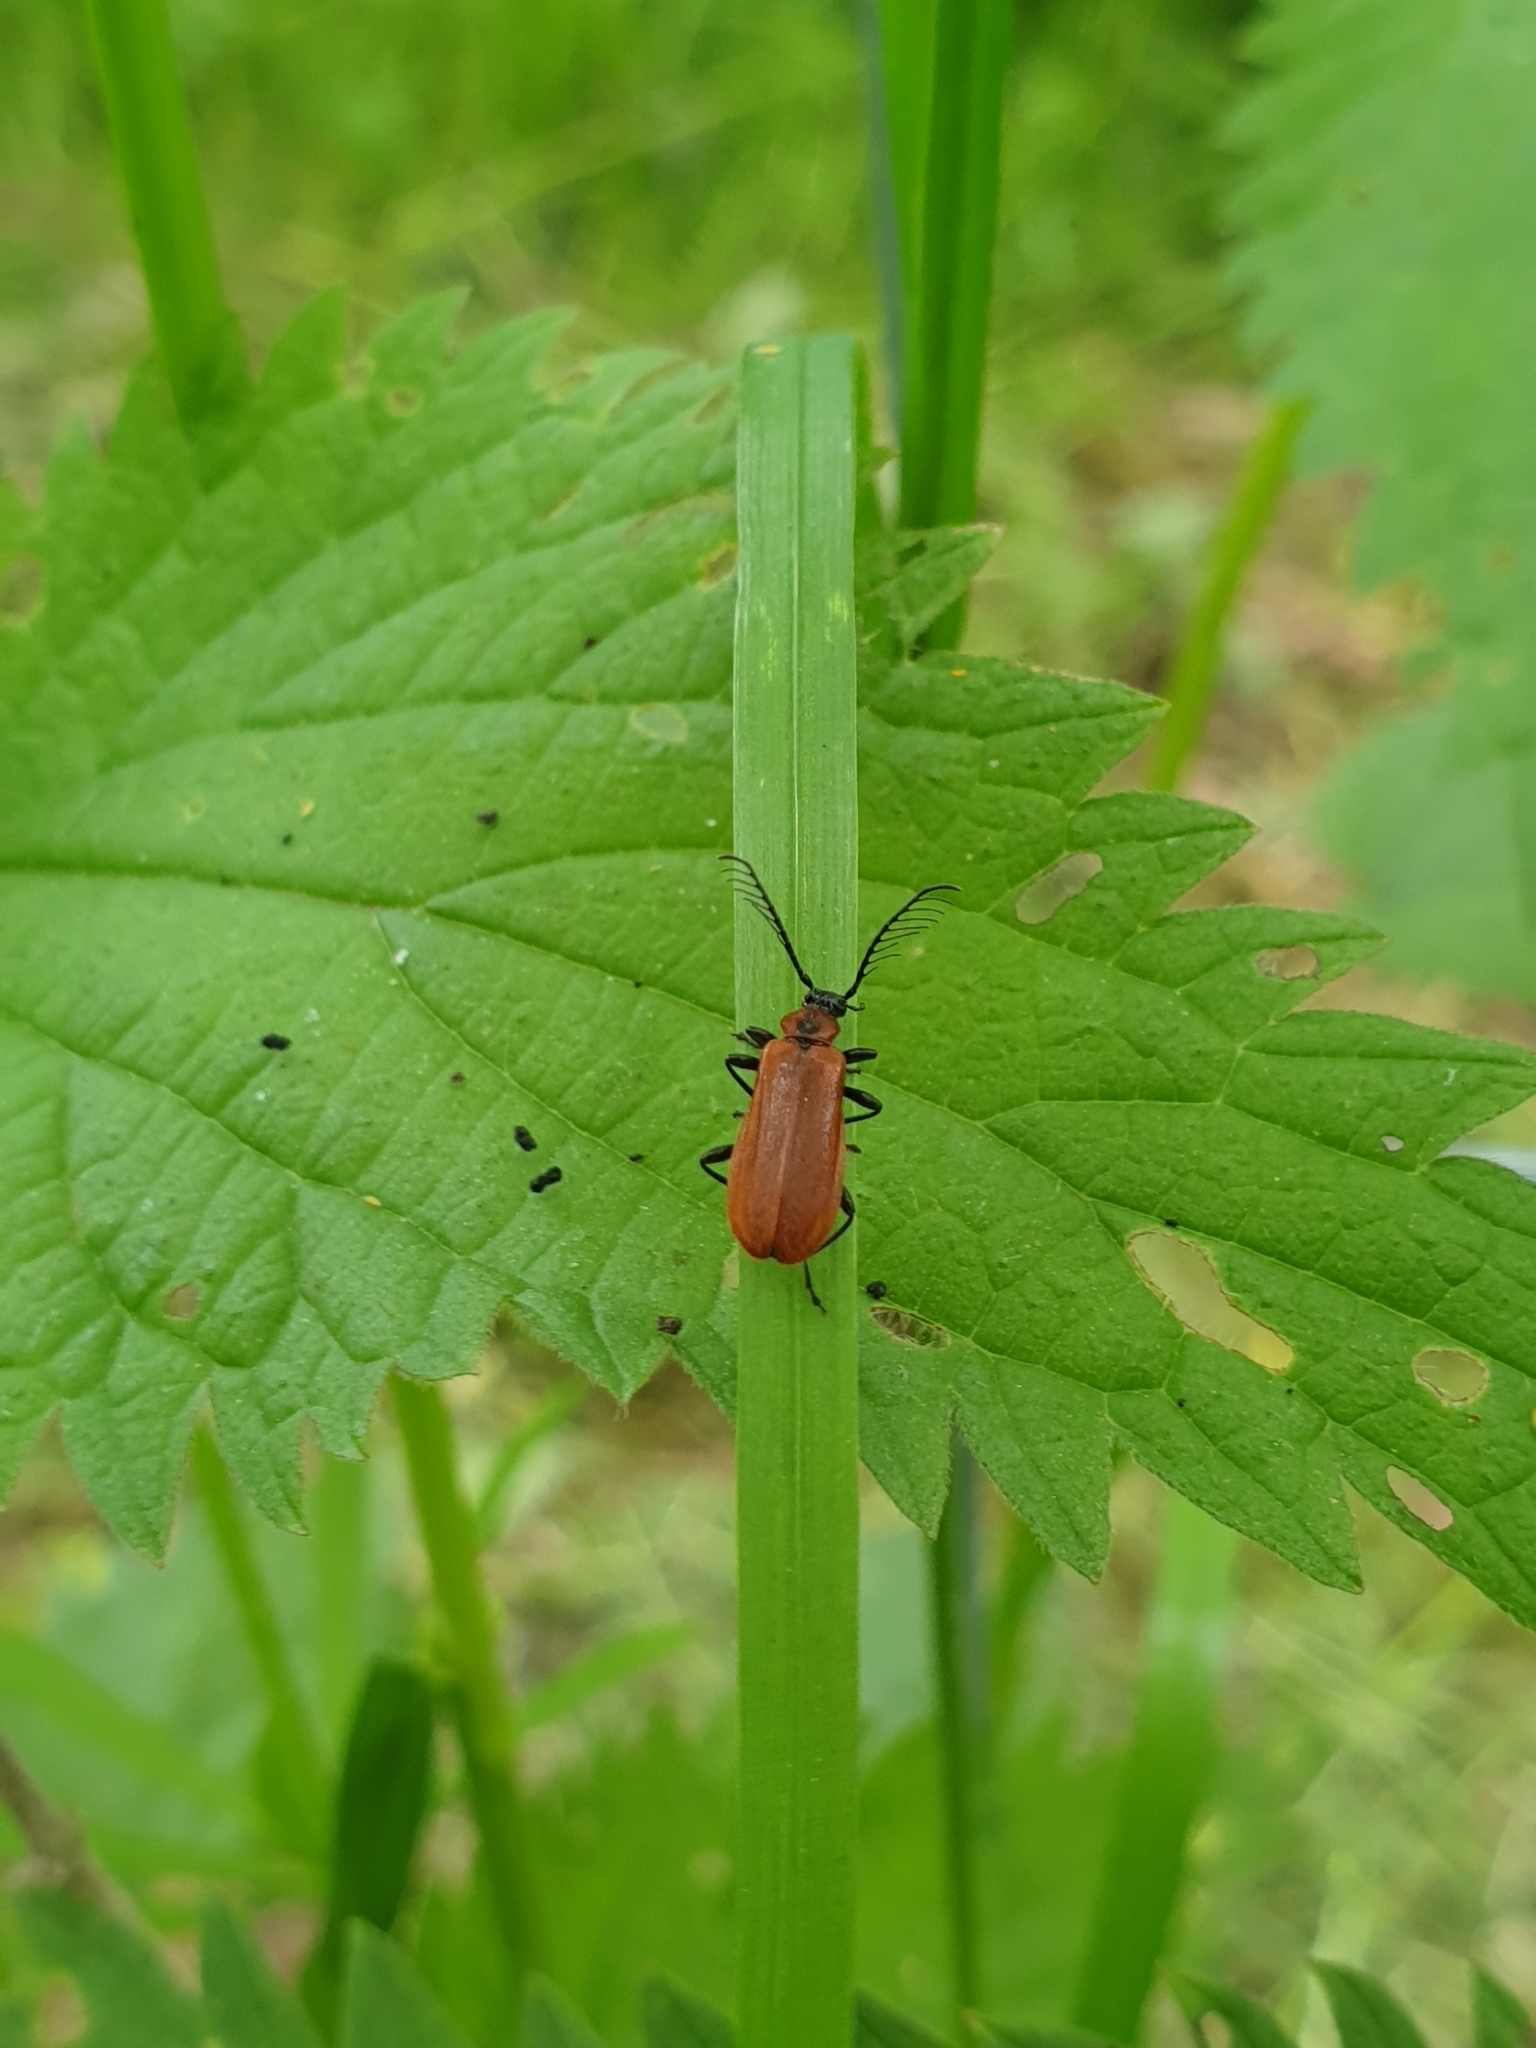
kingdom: Animalia
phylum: Arthropoda
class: Insecta
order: Coleoptera
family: Pyrochroidae
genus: Schizotus
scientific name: Schizotus pectinicornis
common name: Scarce cardinal beetle
